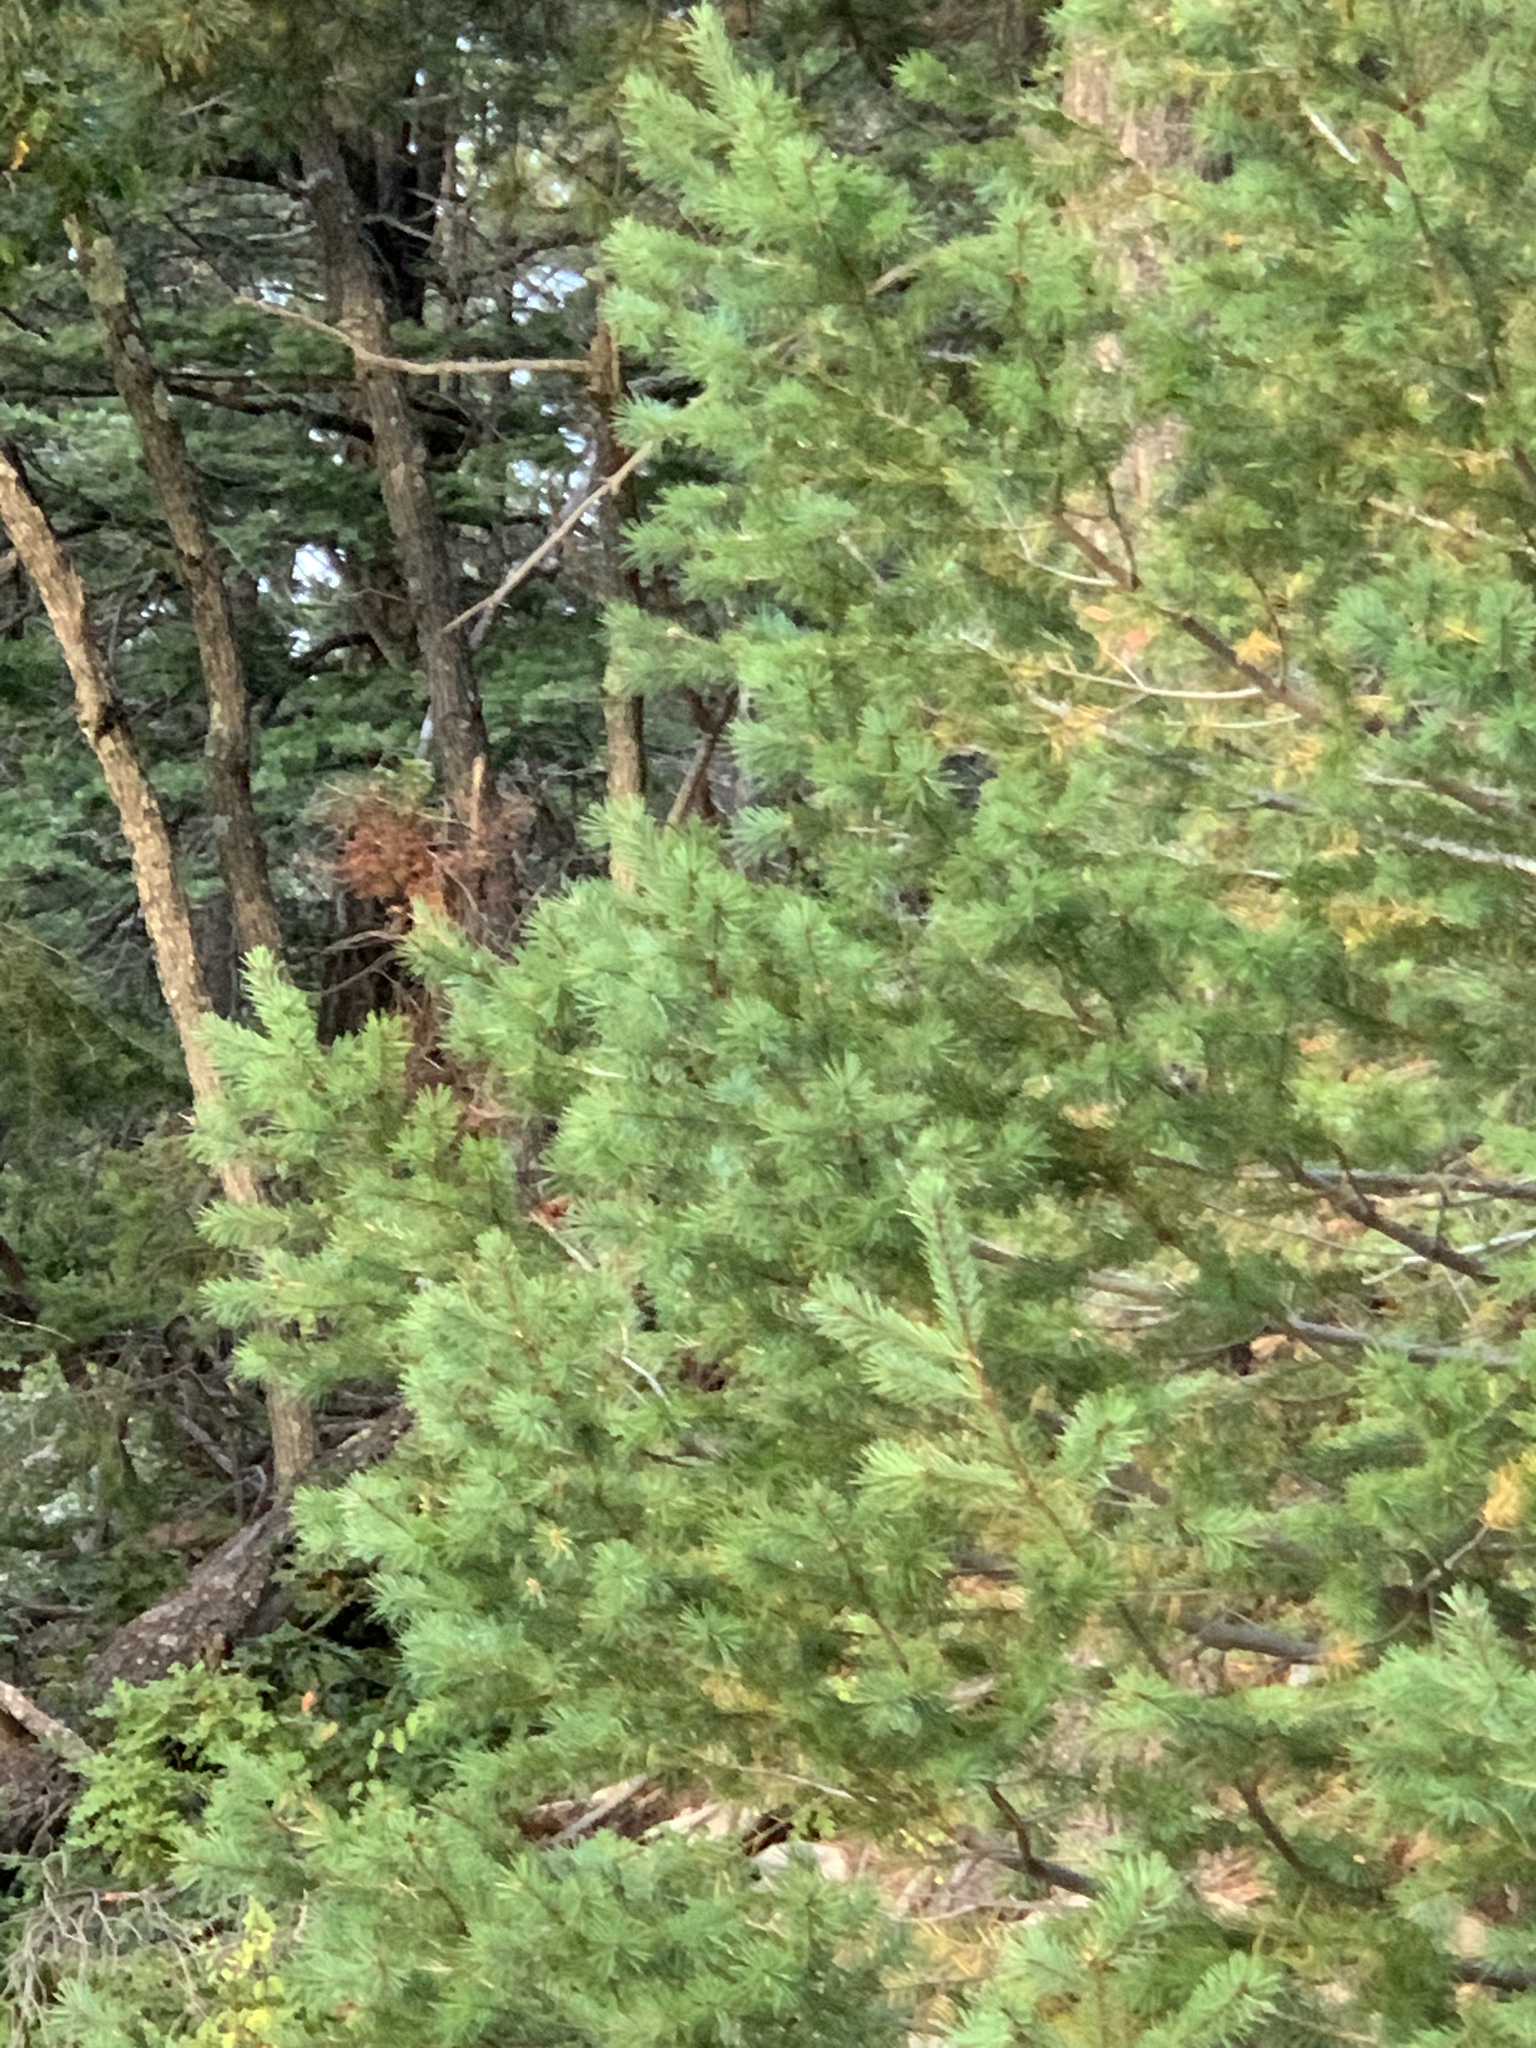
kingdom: Plantae
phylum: Tracheophyta
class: Pinopsida
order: Pinales
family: Pinaceae
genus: Pseudotsuga
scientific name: Pseudotsuga menziesii
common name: Douglas fir
